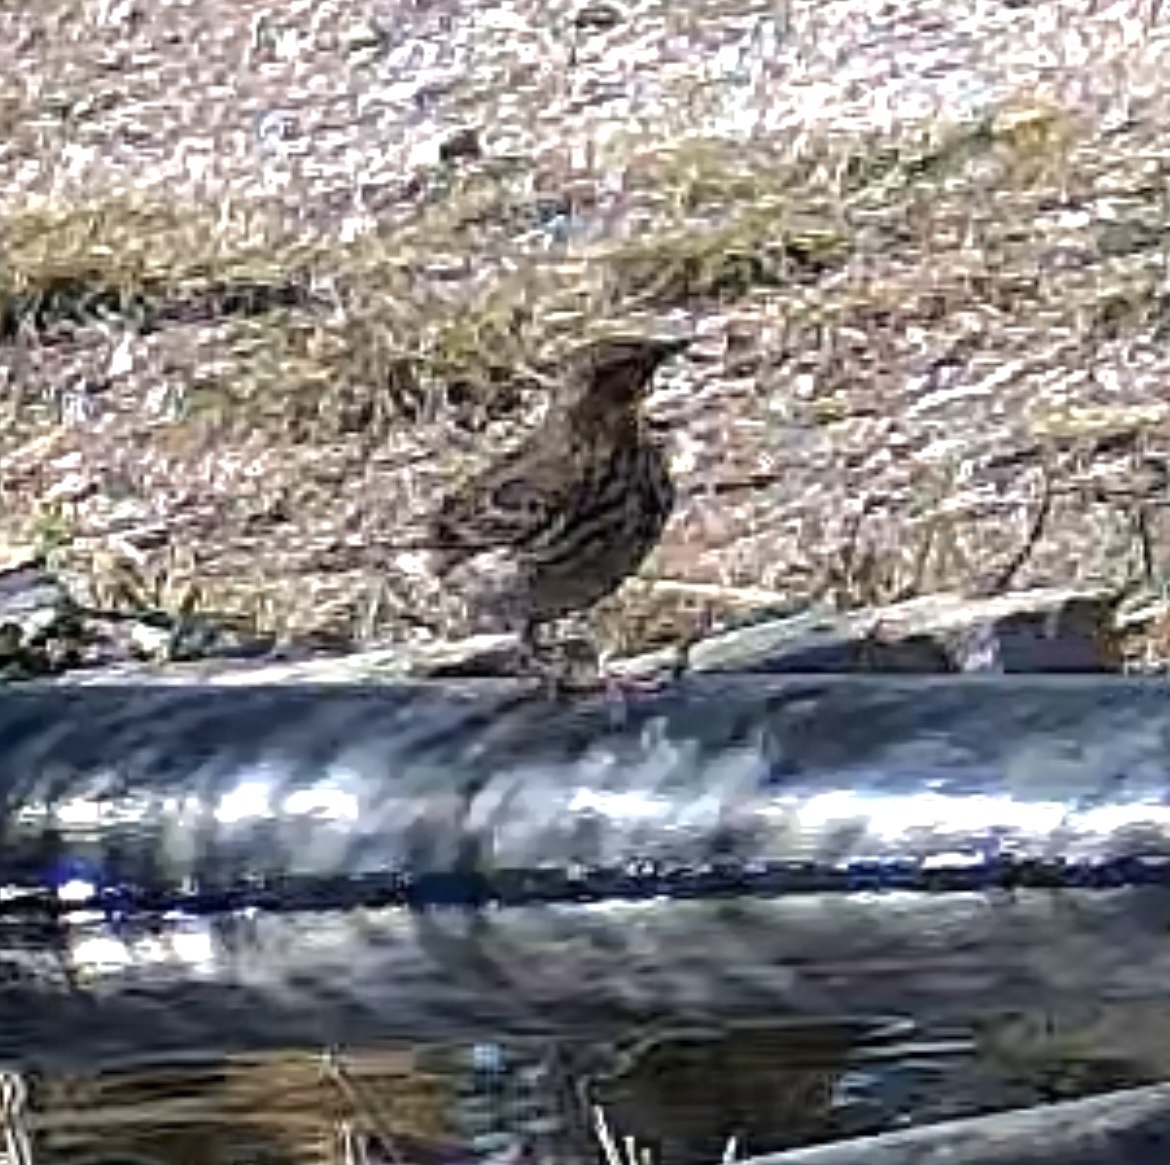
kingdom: Animalia
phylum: Chordata
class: Aves
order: Passeriformes
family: Motacillidae
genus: Anthus
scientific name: Anthus pratensis
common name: Meadow pipit
